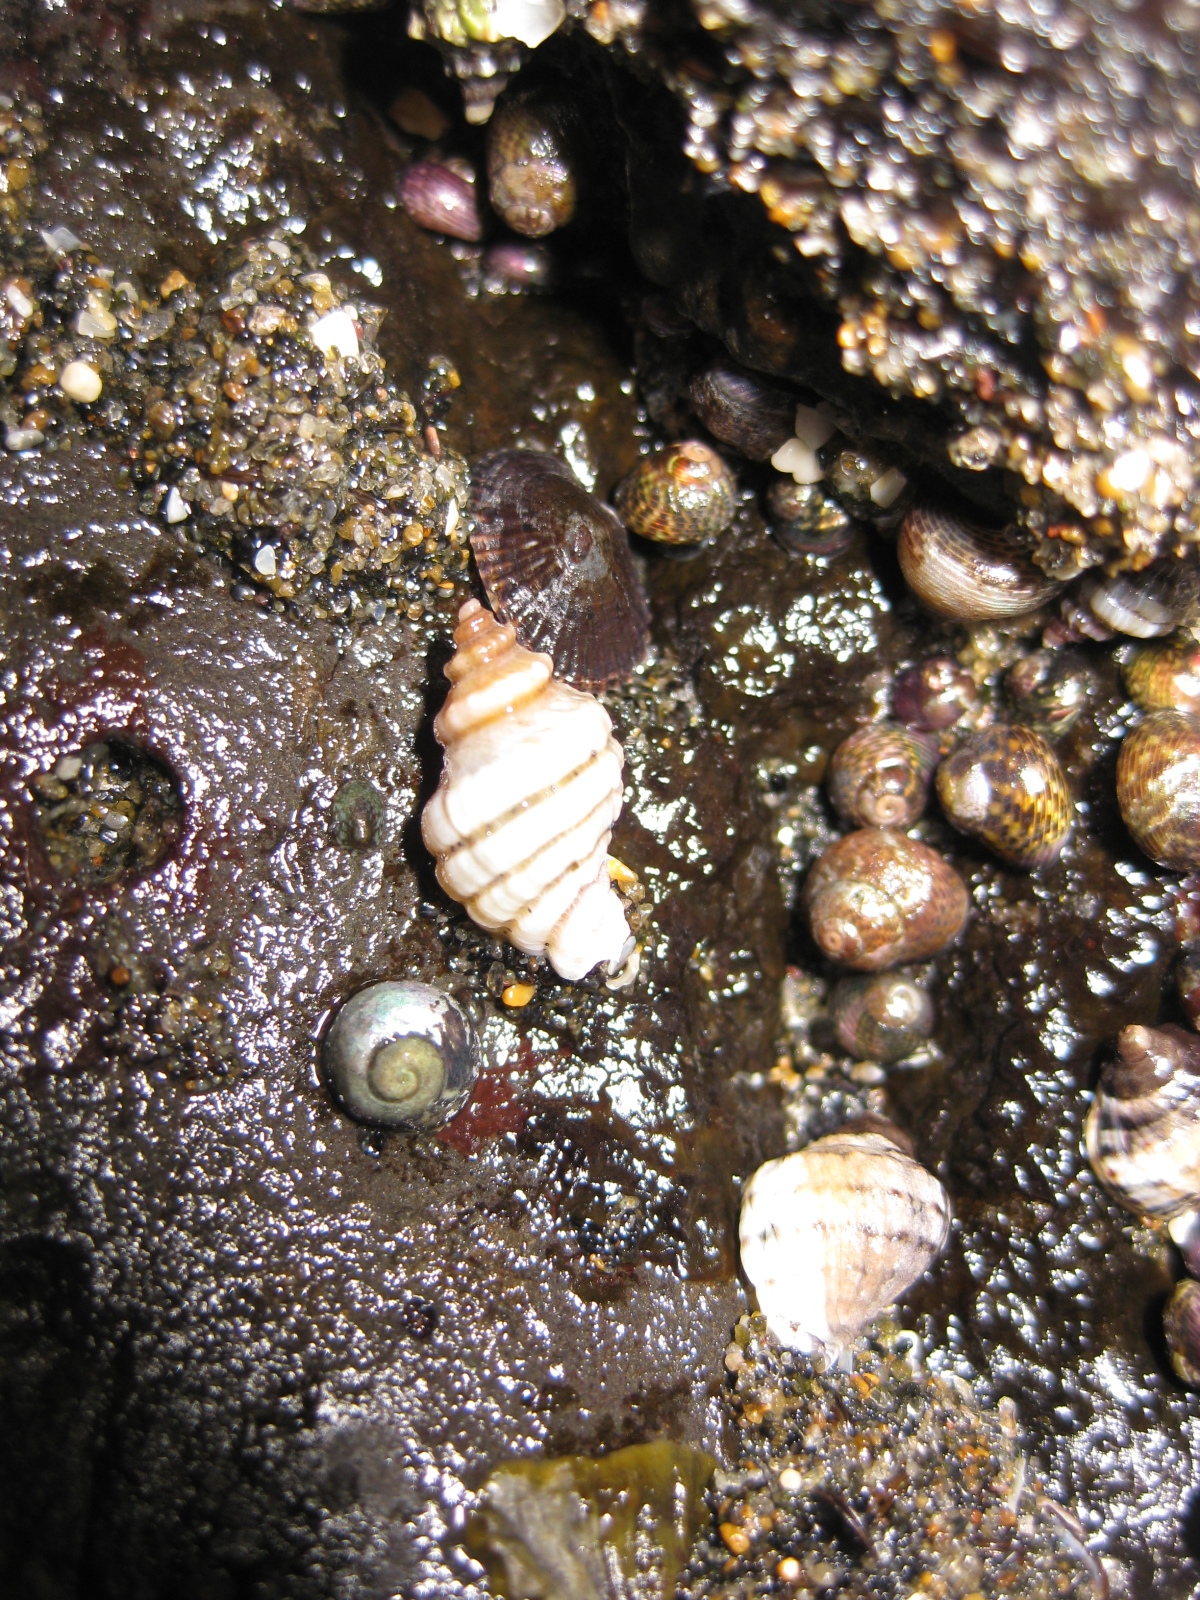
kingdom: Animalia
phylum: Mollusca
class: Gastropoda
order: Neogastropoda
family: Muricidae
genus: Paratrophon
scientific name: Paratrophon cheesemani
